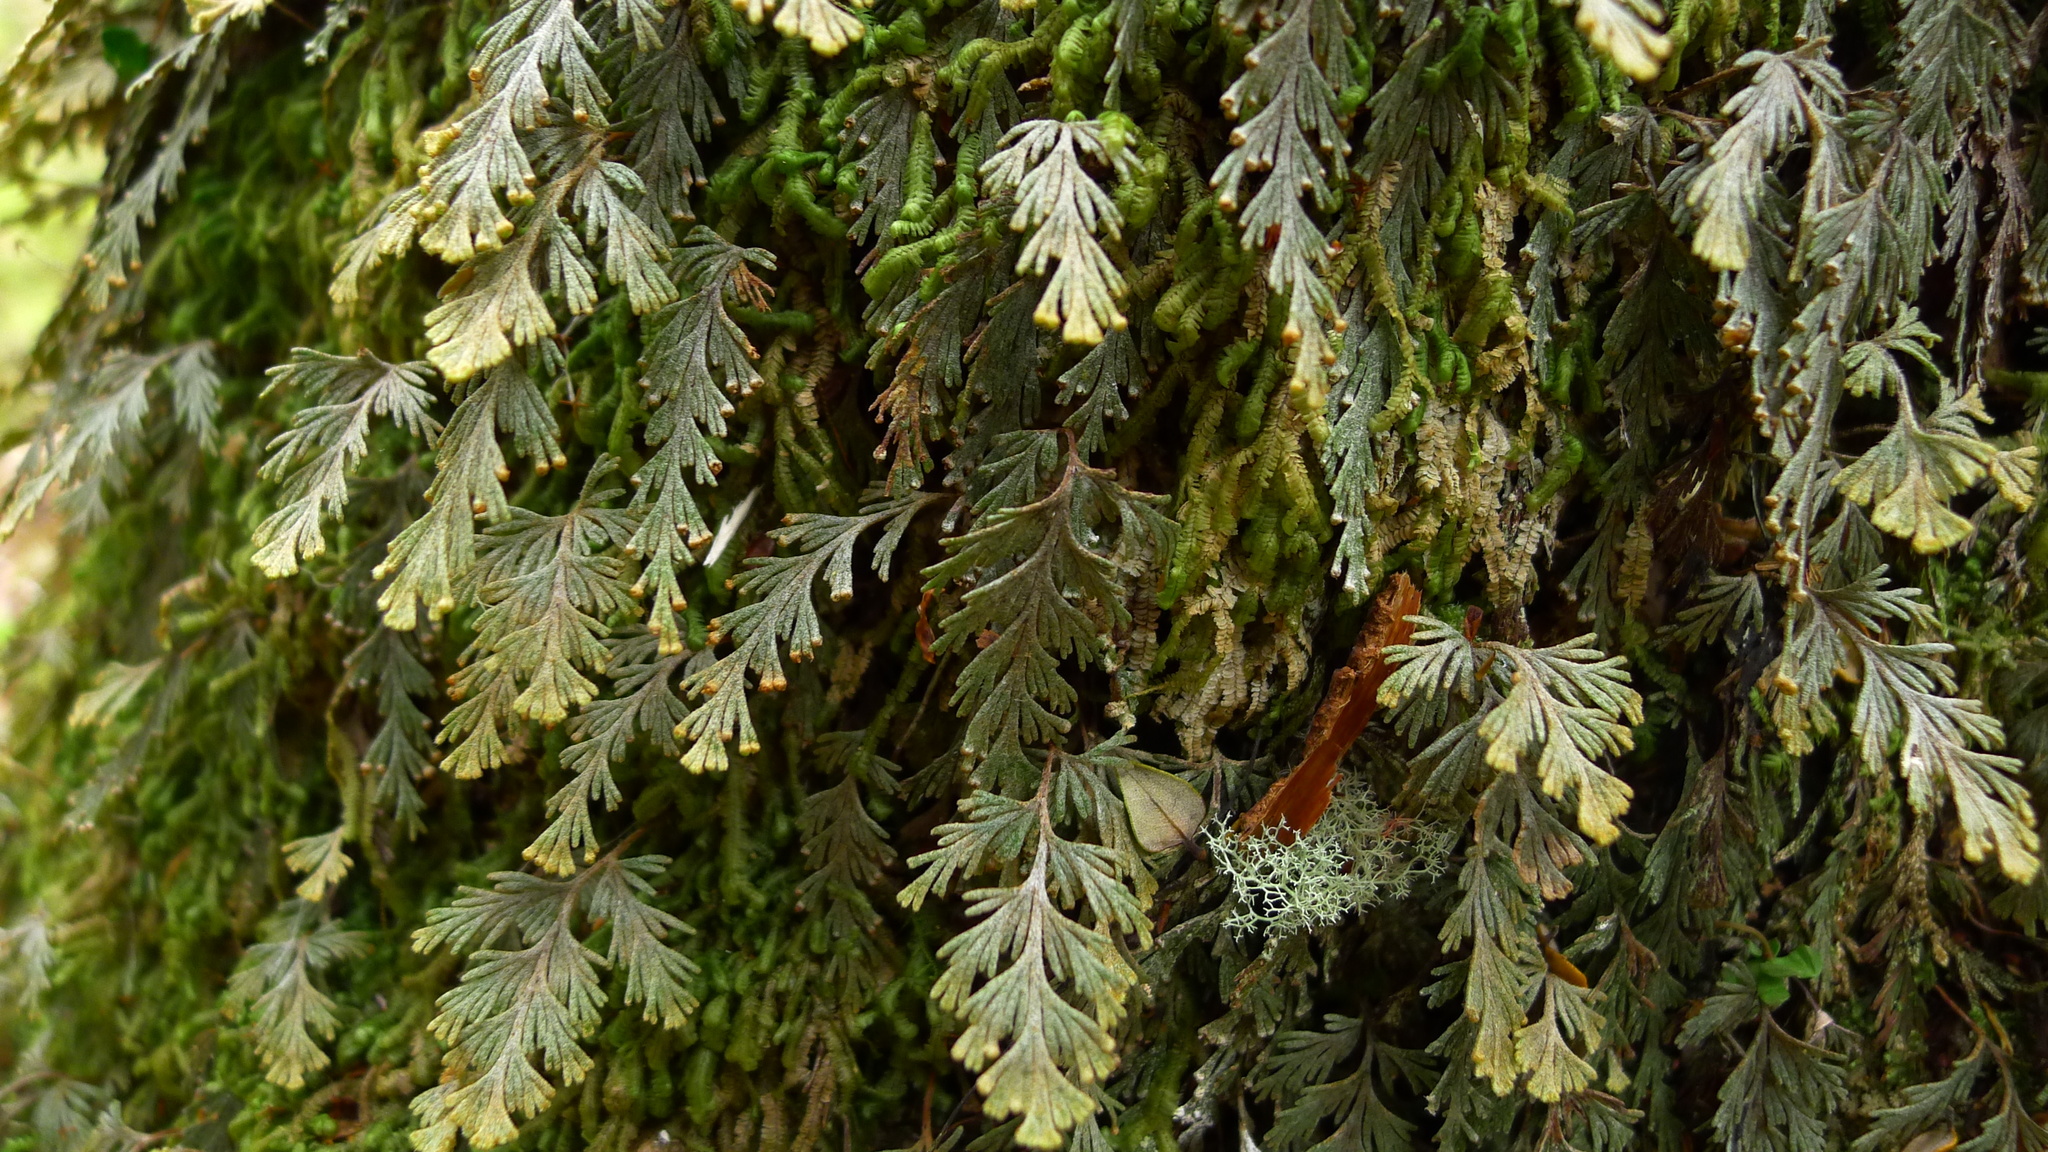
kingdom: Plantae
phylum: Tracheophyta
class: Polypodiopsida
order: Hymenophyllales
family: Hymenophyllaceae
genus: Hymenophyllum
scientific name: Hymenophyllum malingii
